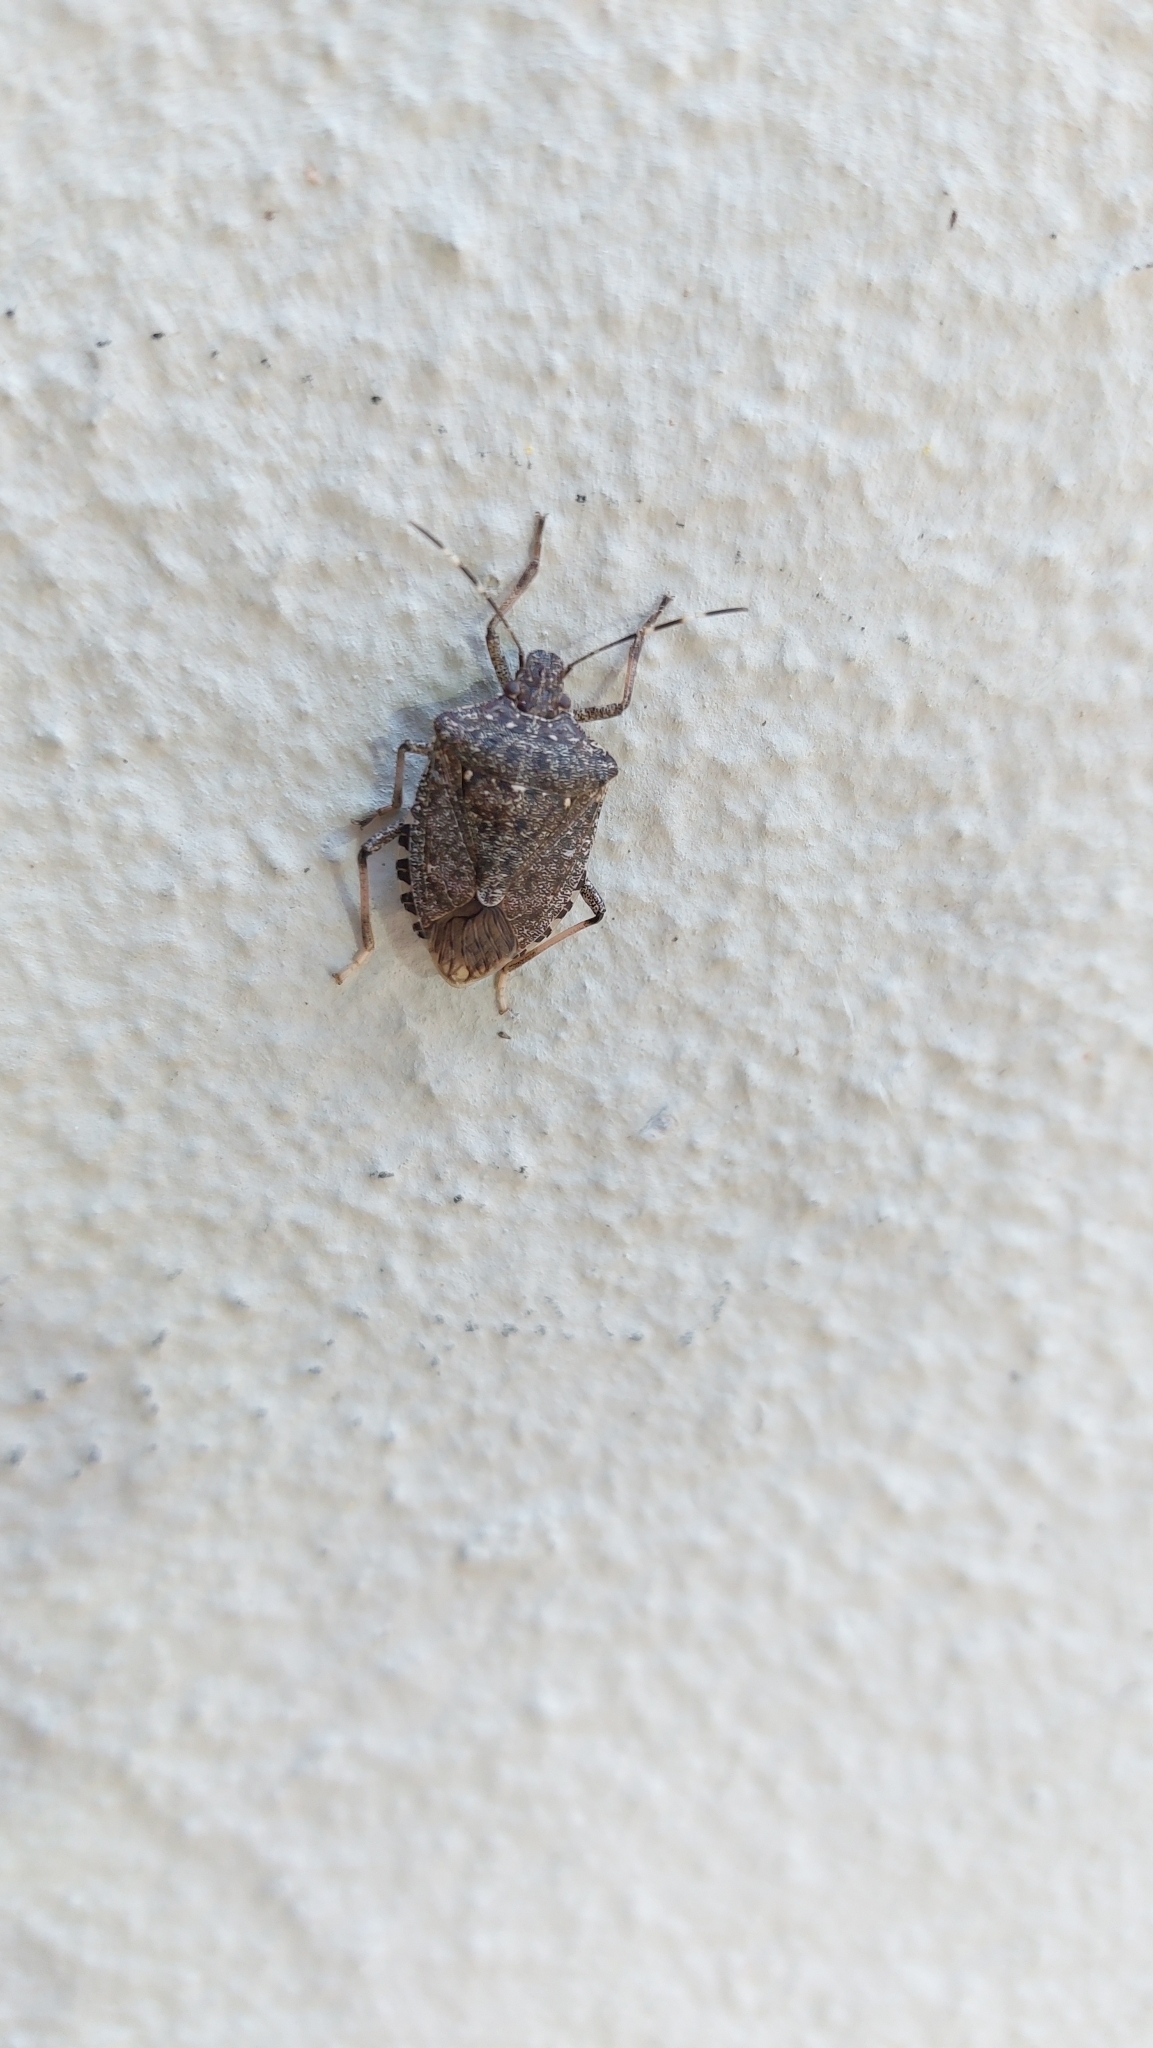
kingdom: Animalia
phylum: Arthropoda
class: Insecta
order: Hemiptera
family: Pentatomidae
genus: Halyomorpha
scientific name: Halyomorpha halys
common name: Brown marmorated stink bug
